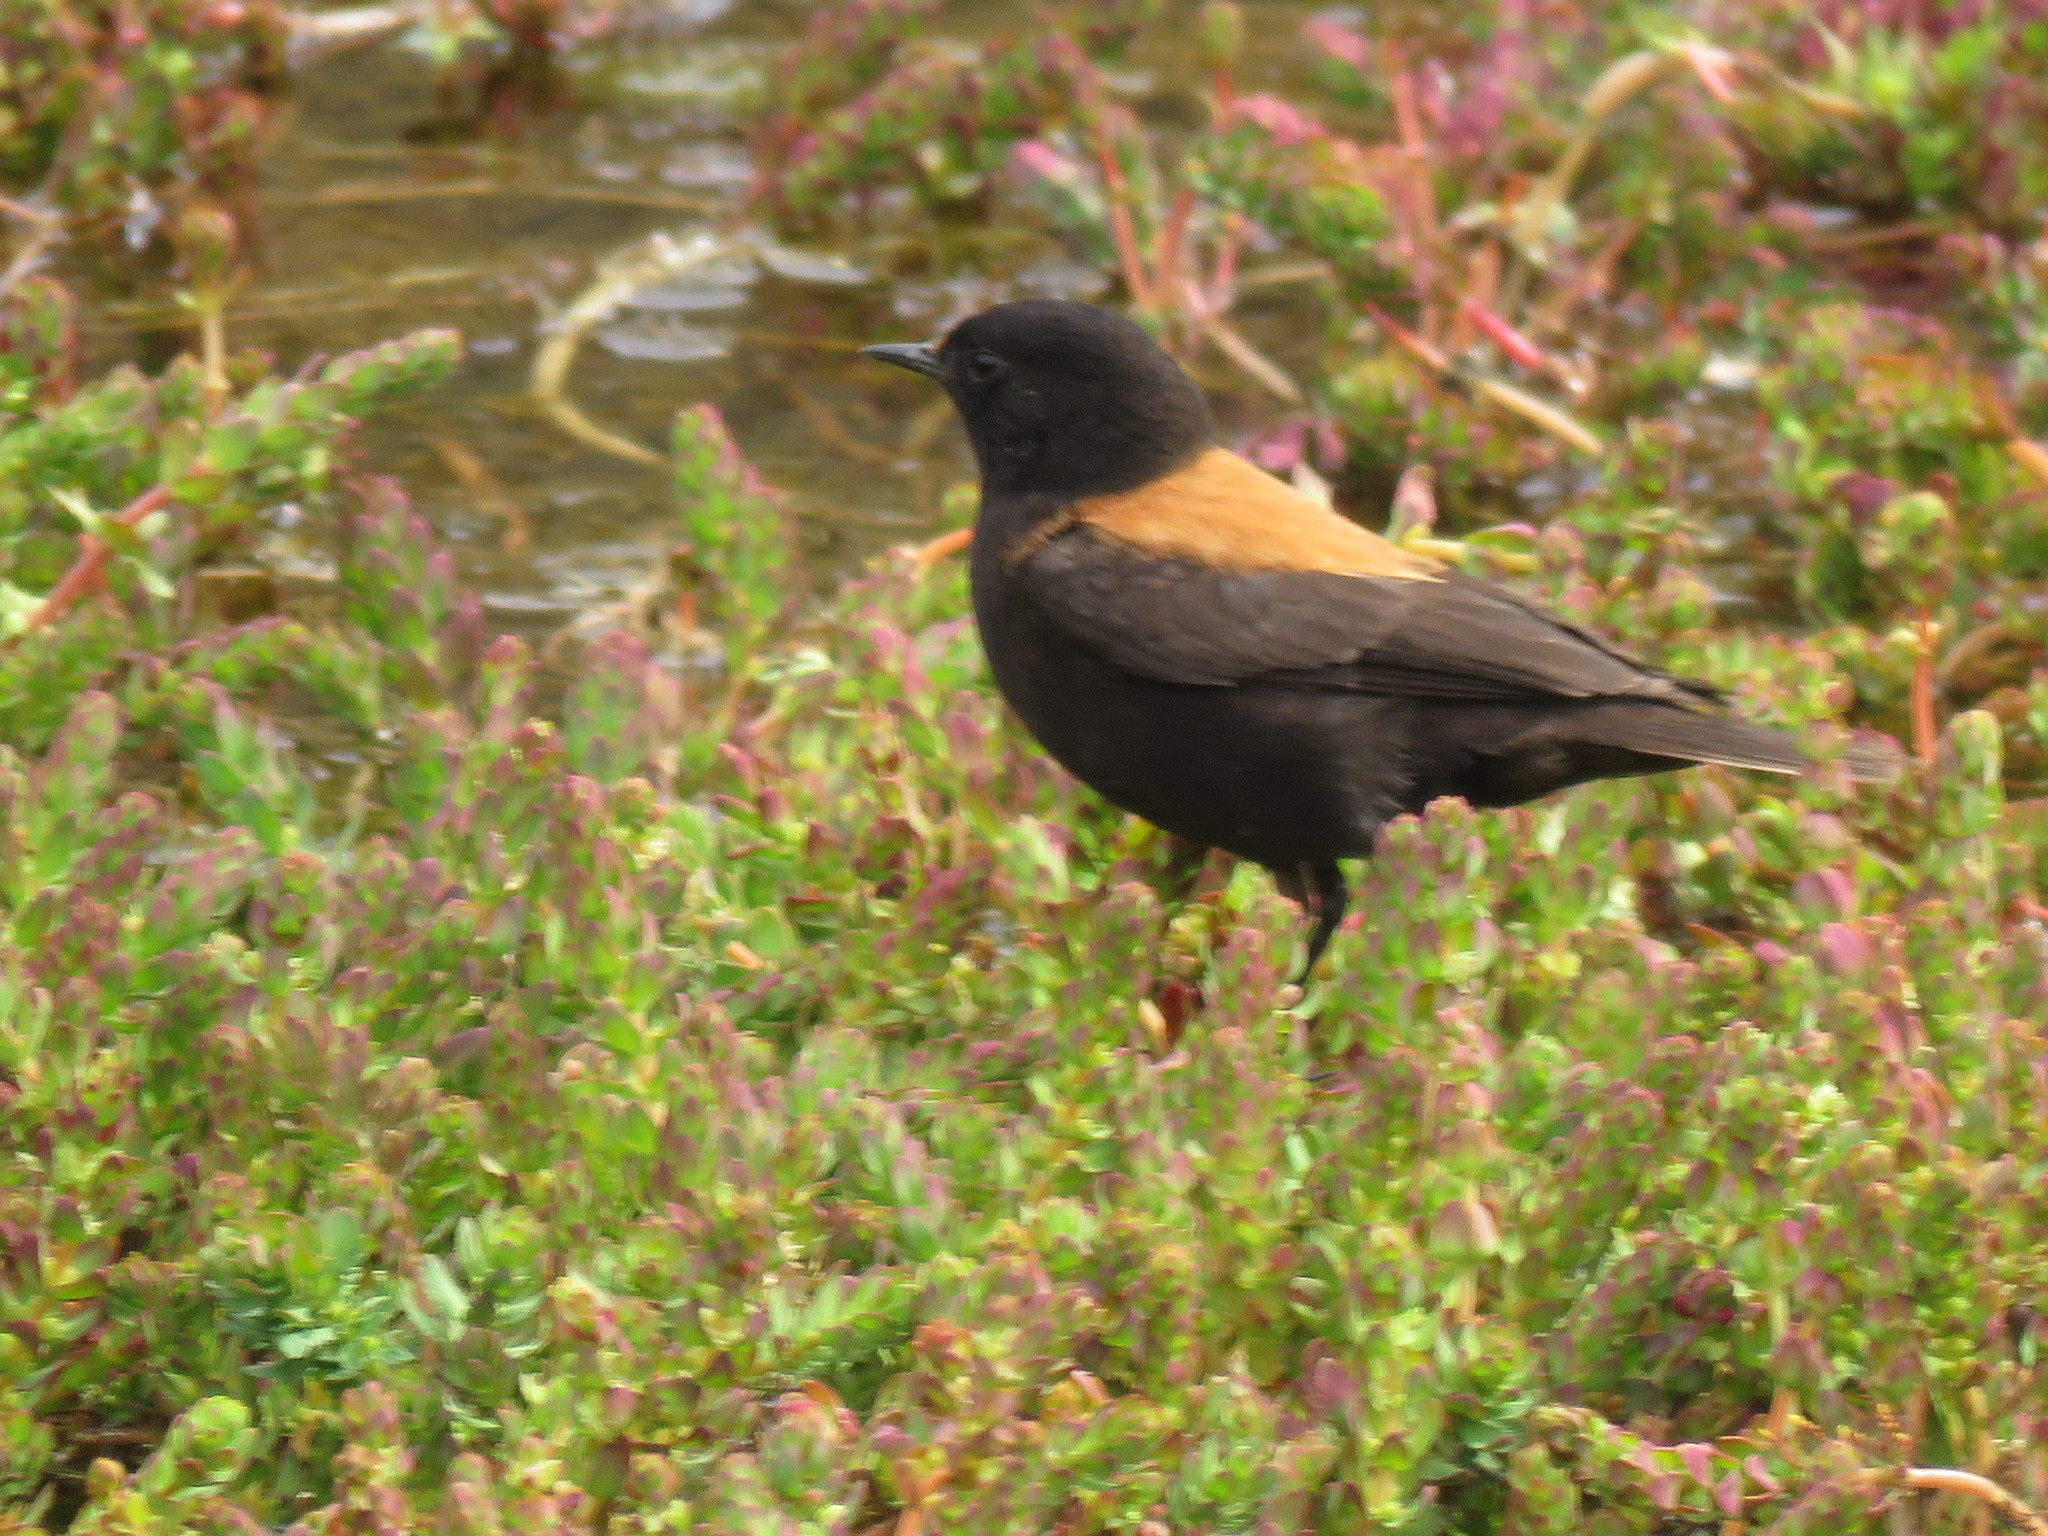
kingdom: Animalia
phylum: Chordata
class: Aves
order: Passeriformes
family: Tyrannidae
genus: Lessonia
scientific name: Lessonia rufa
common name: Austral negrito
